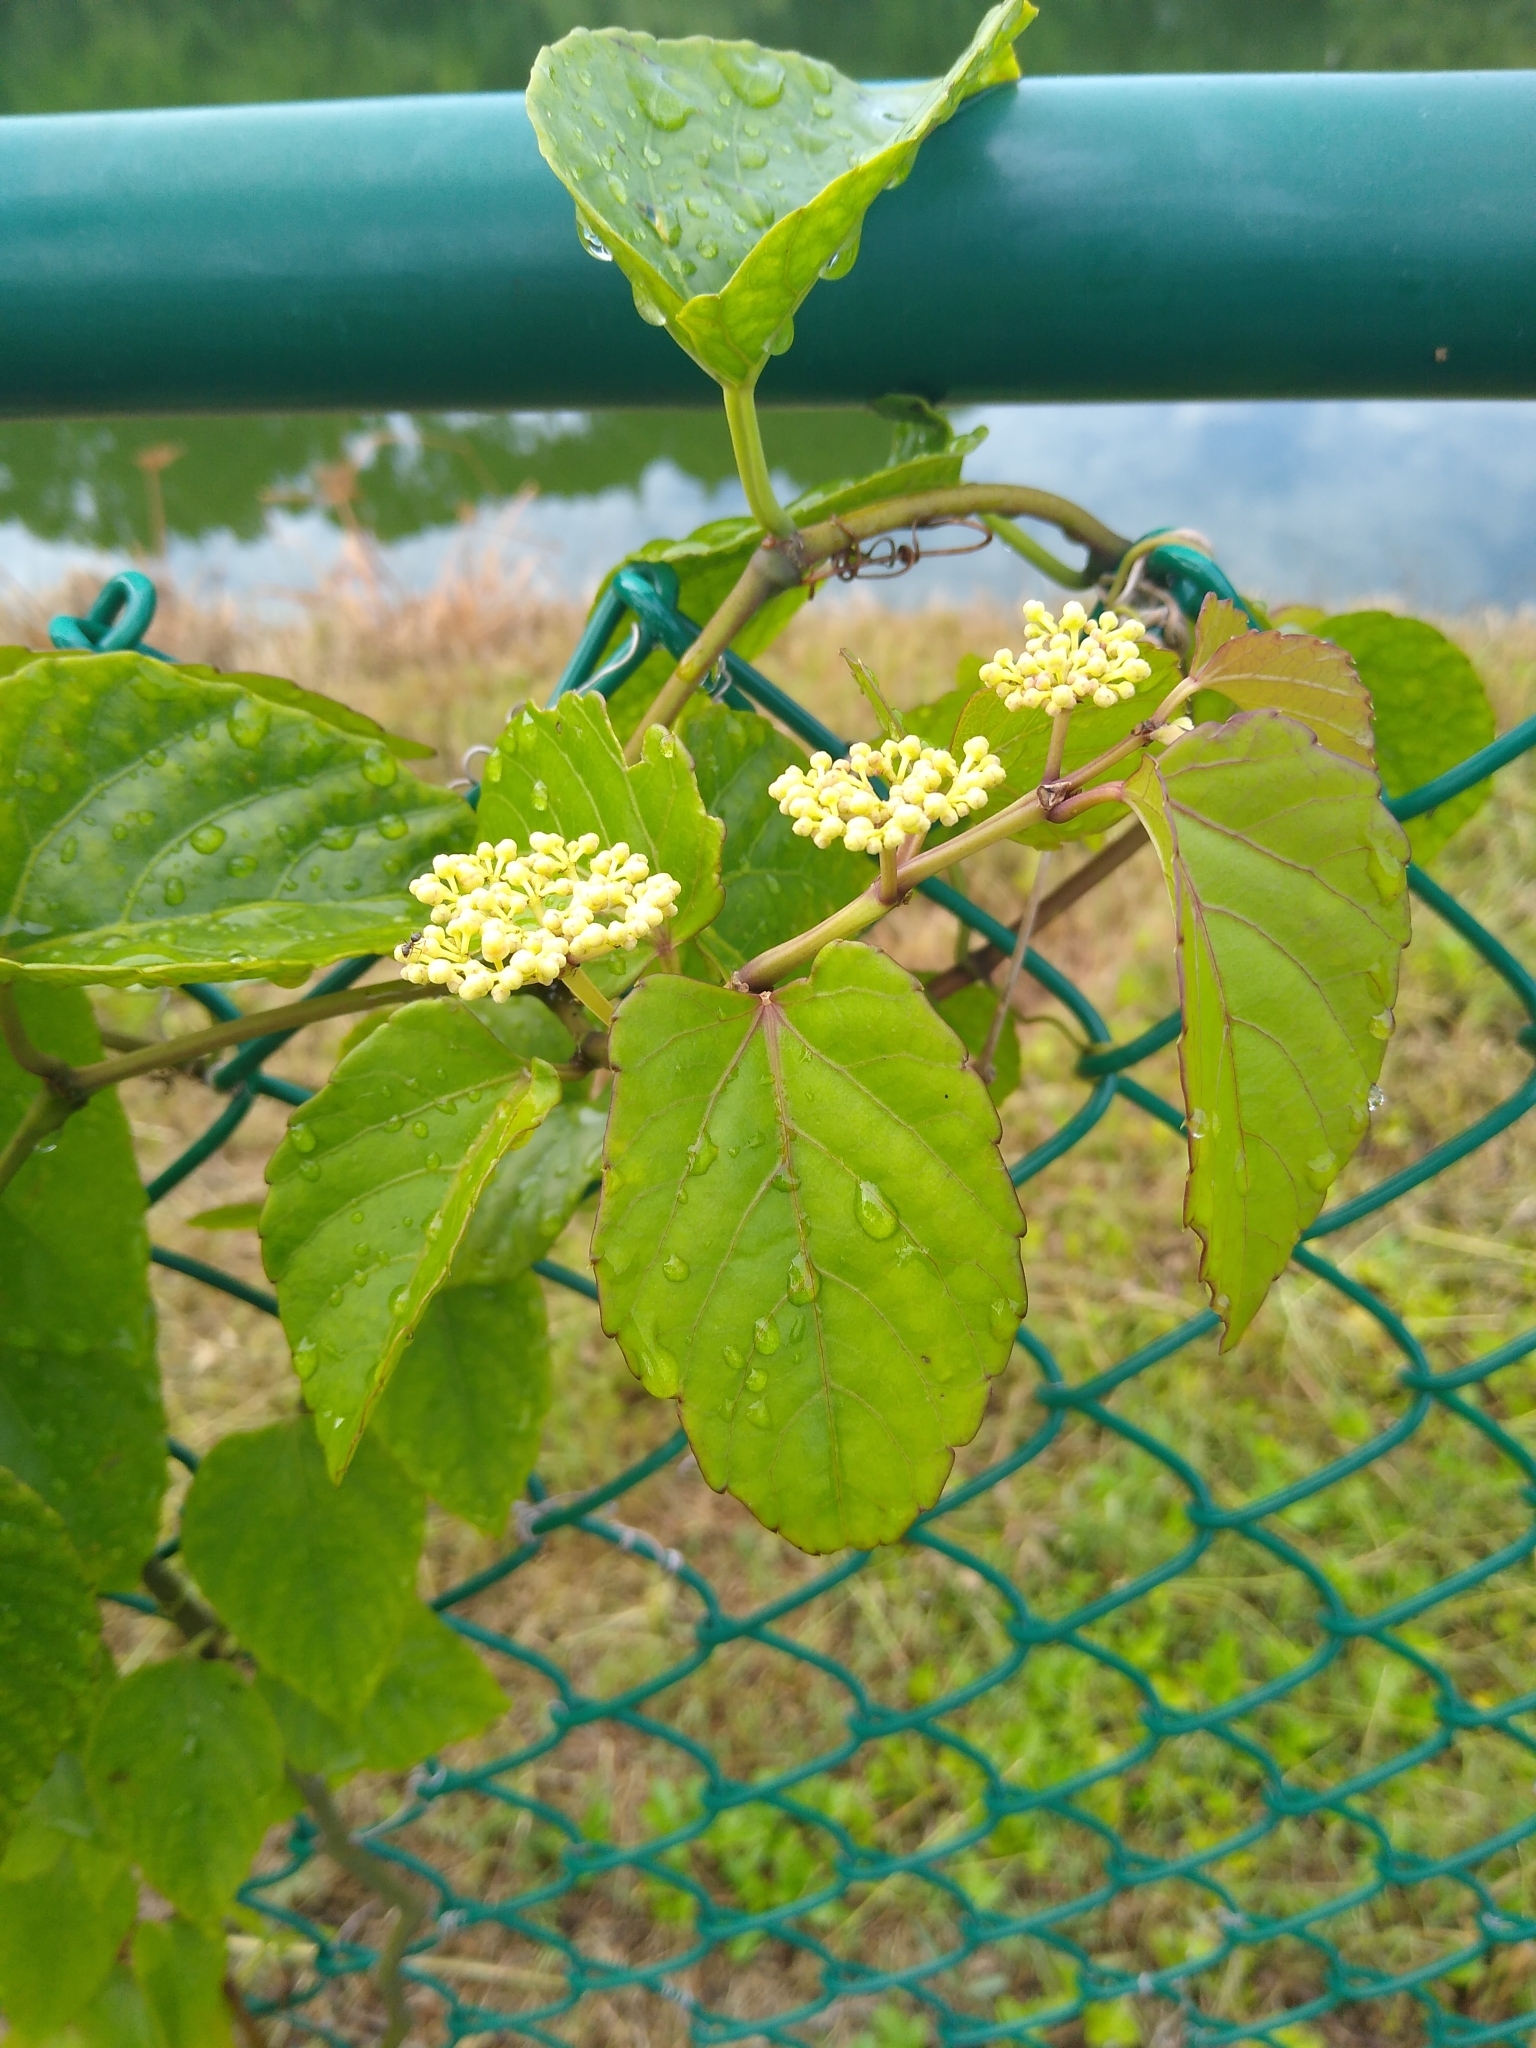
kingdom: Plantae
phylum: Tracheophyta
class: Magnoliopsida
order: Vitales
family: Vitaceae
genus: Cissus
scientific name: Cissus verticillata
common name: Princess vine
